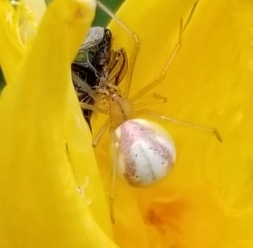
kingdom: Animalia
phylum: Arthropoda
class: Arachnida
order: Araneae
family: Theridiidae
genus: Enoplognatha
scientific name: Enoplognatha ovata
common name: Common candy-striped spider
